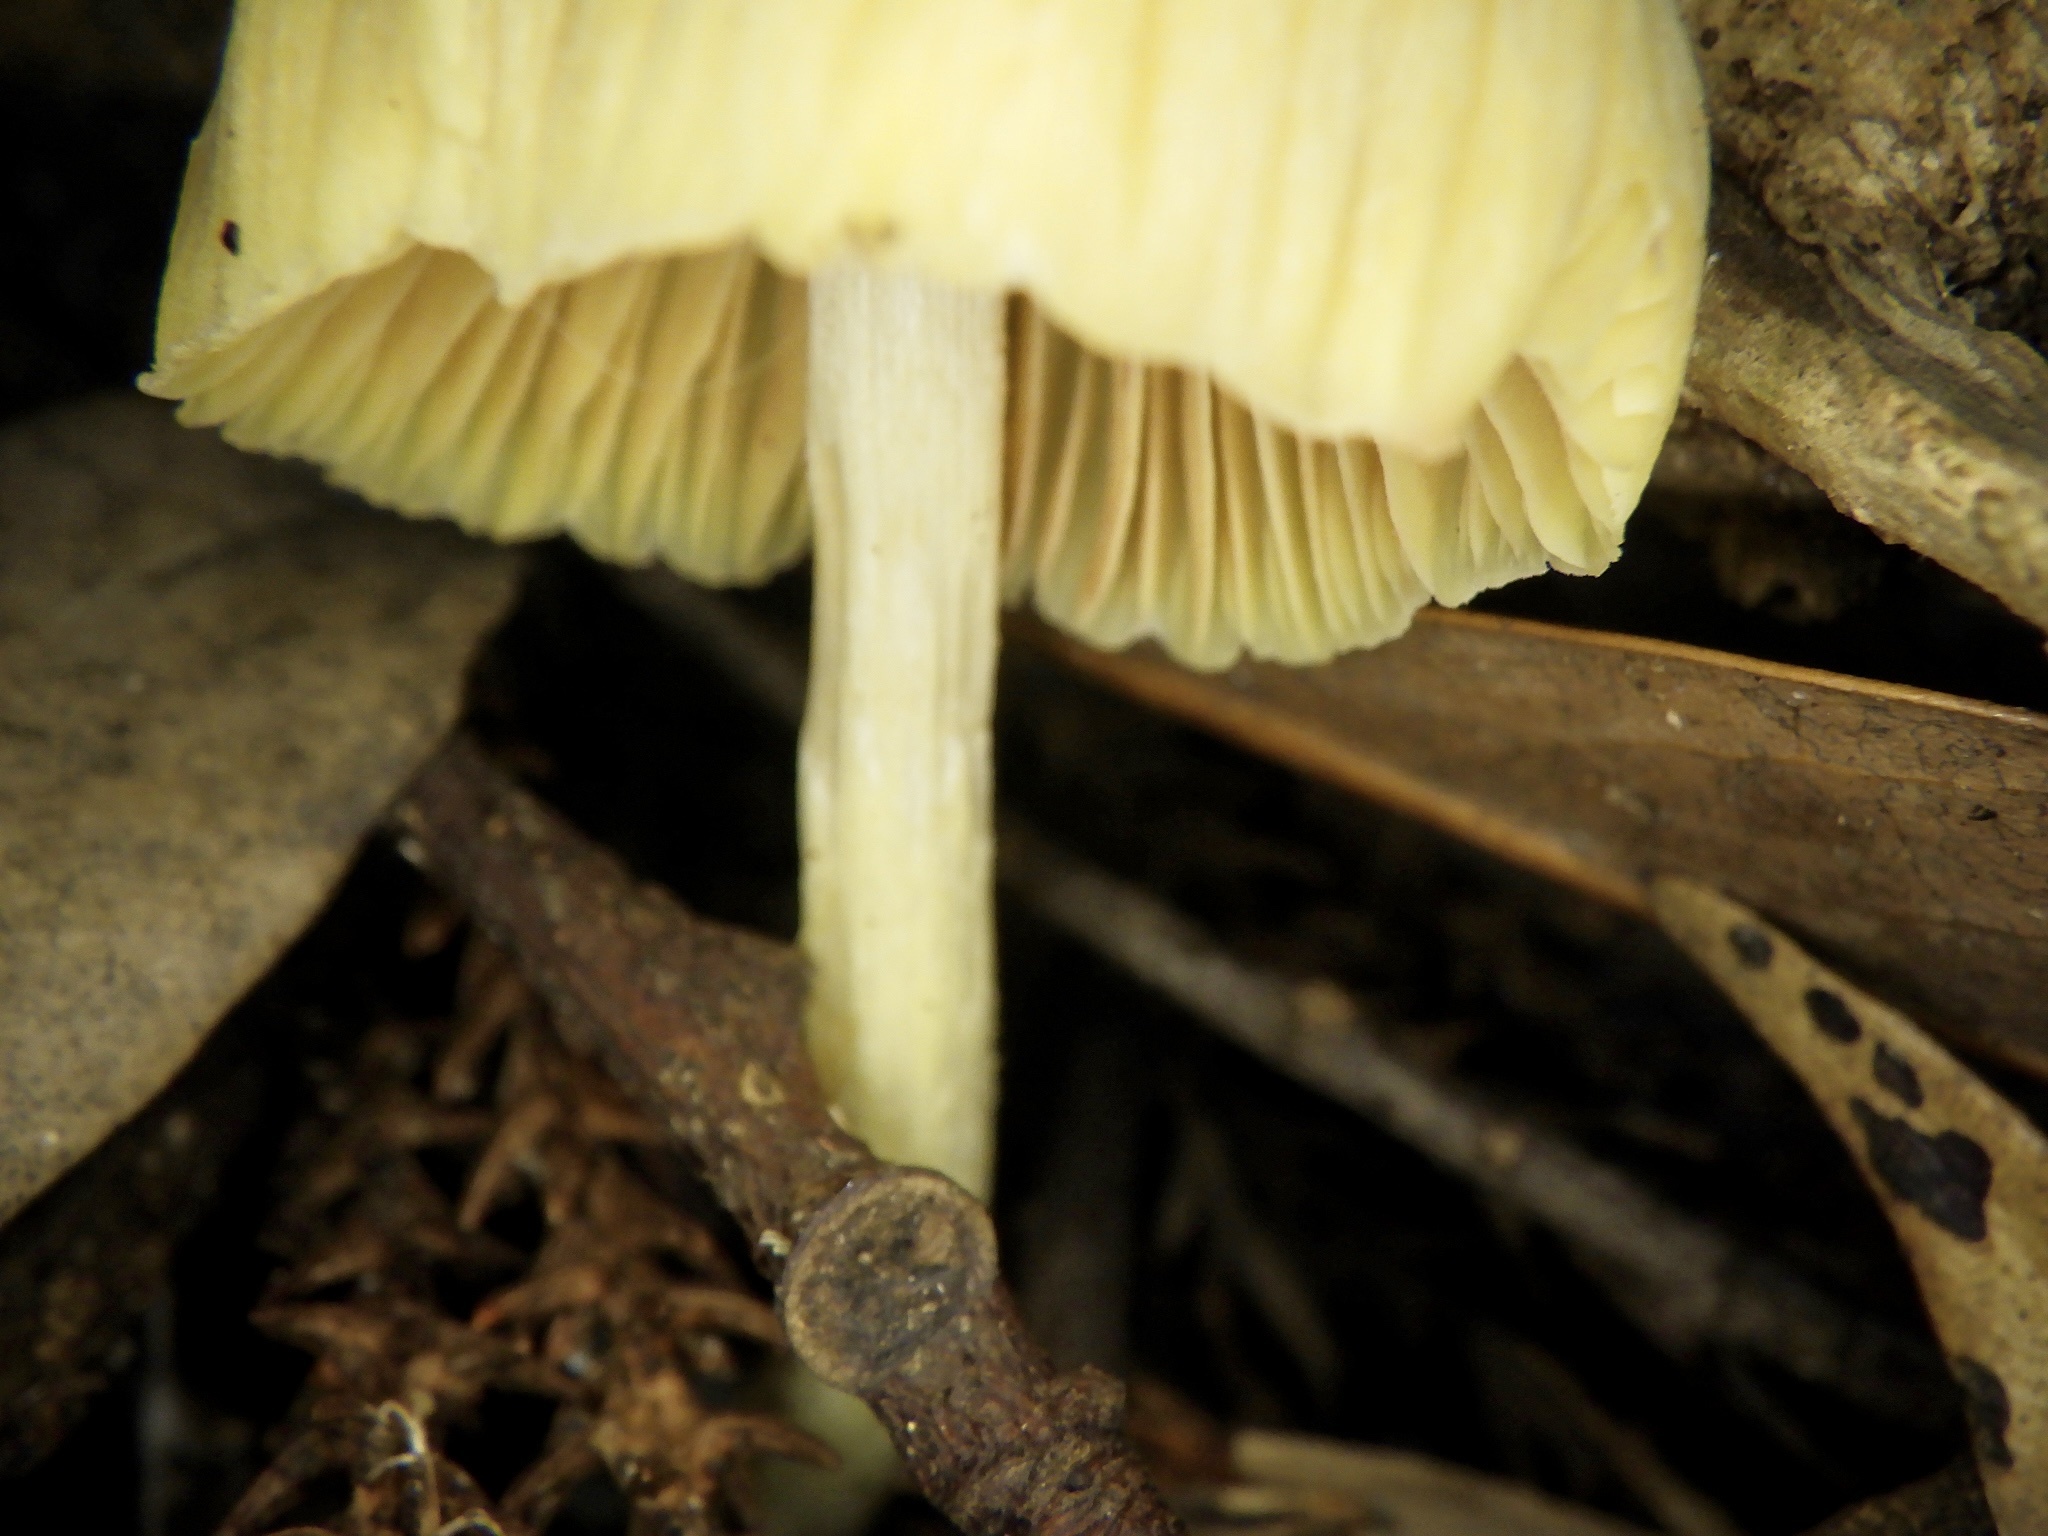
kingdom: Fungi
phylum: Basidiomycota
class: Agaricomycetes
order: Agaricales
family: Entolomataceae
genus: Entoloma
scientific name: Entoloma murrayi
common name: Yellow unicorn entoloma
